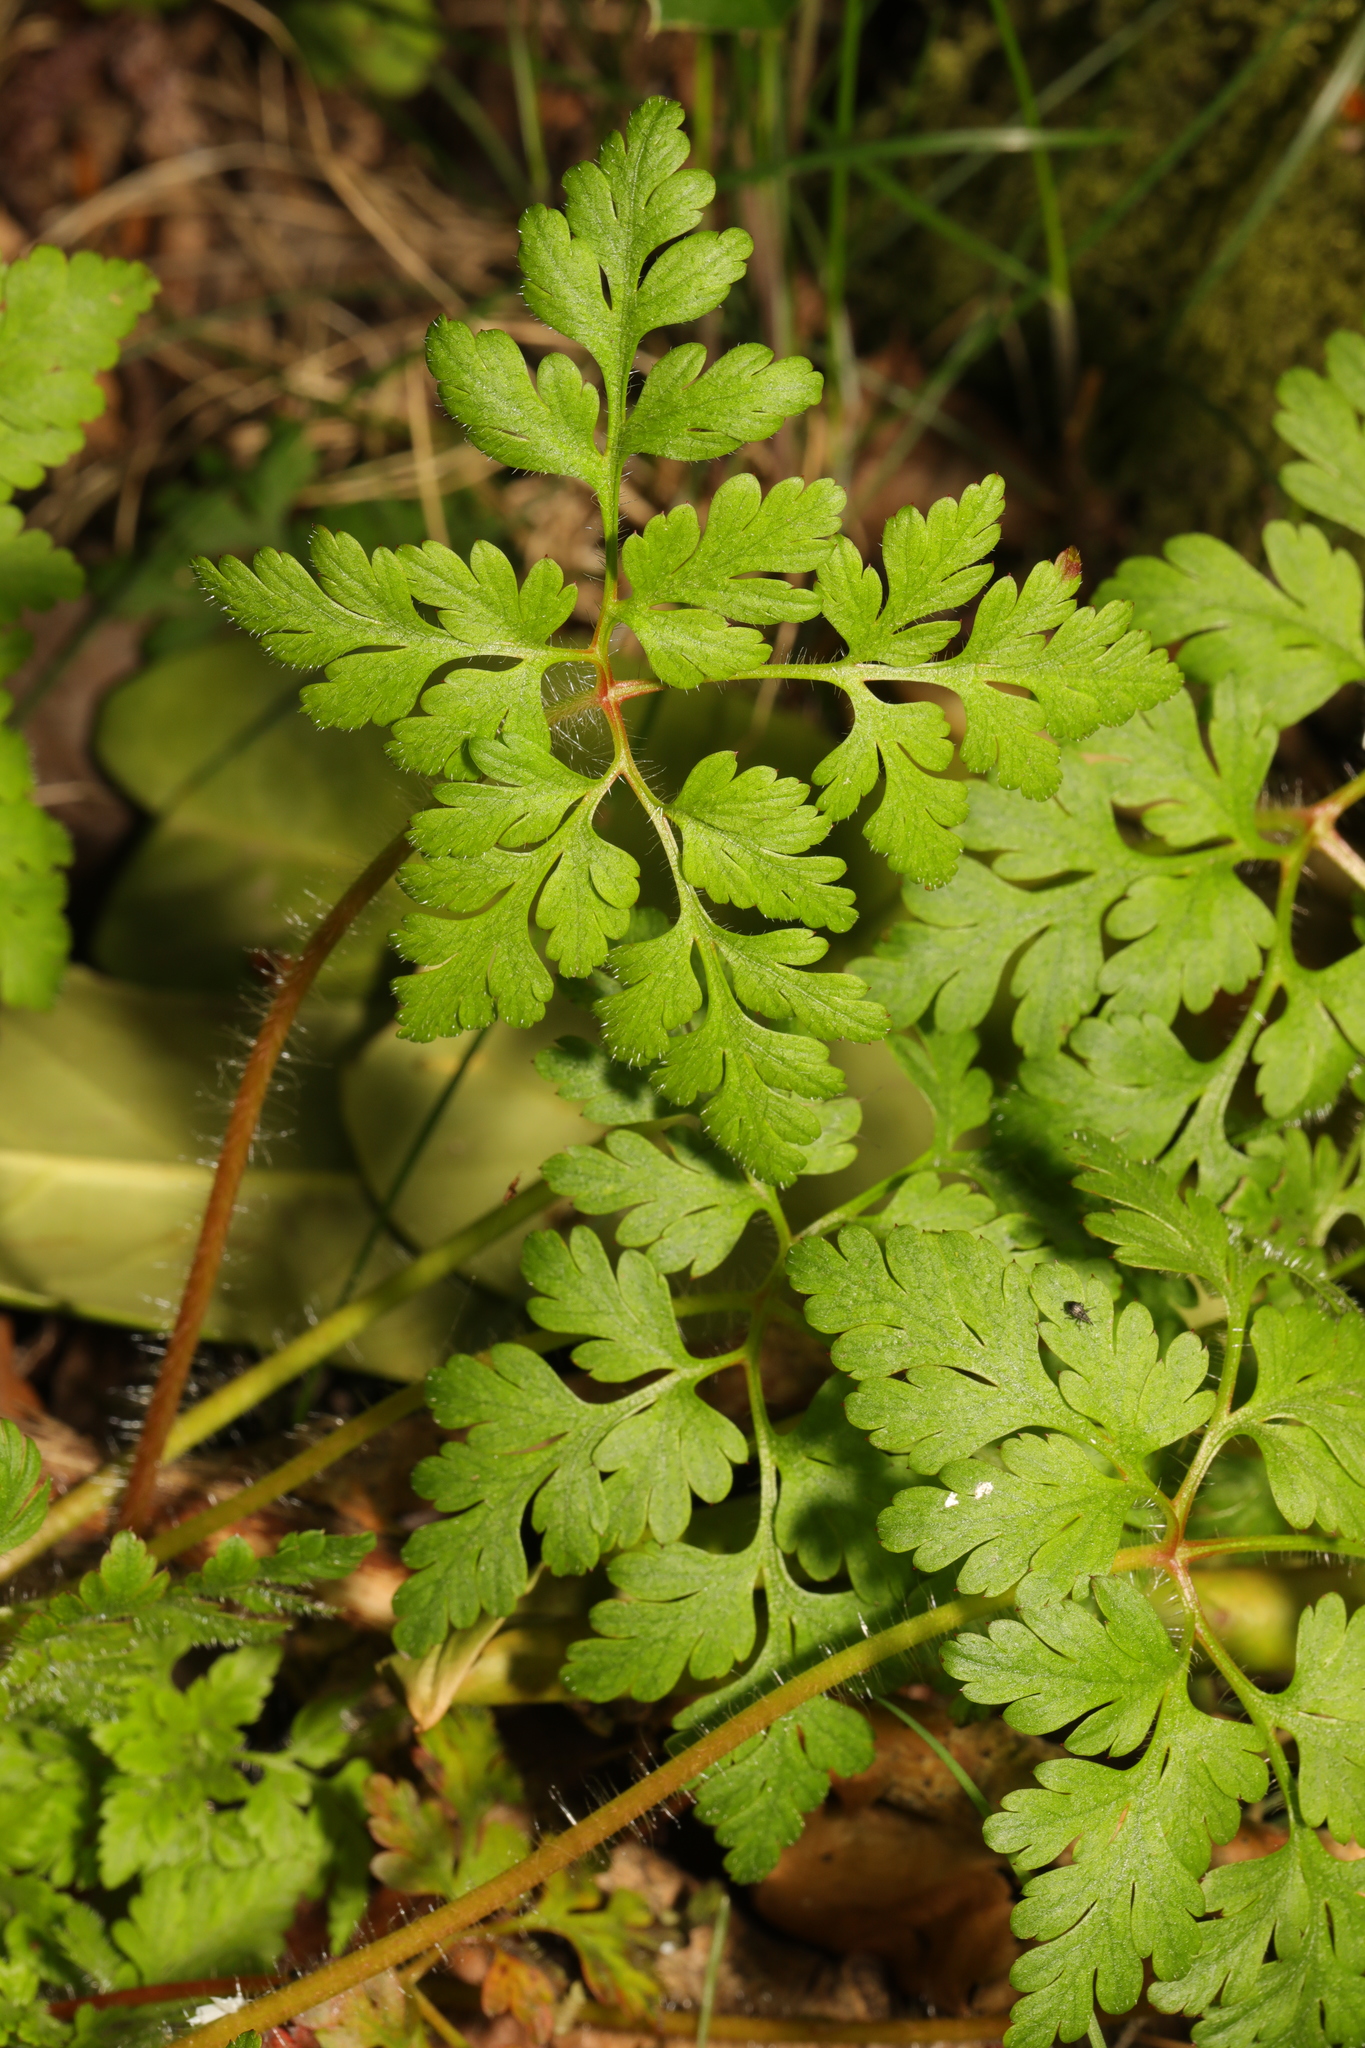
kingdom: Plantae
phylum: Tracheophyta
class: Magnoliopsida
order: Geraniales
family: Geraniaceae
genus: Geranium
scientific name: Geranium robertianum
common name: Herb-robert
